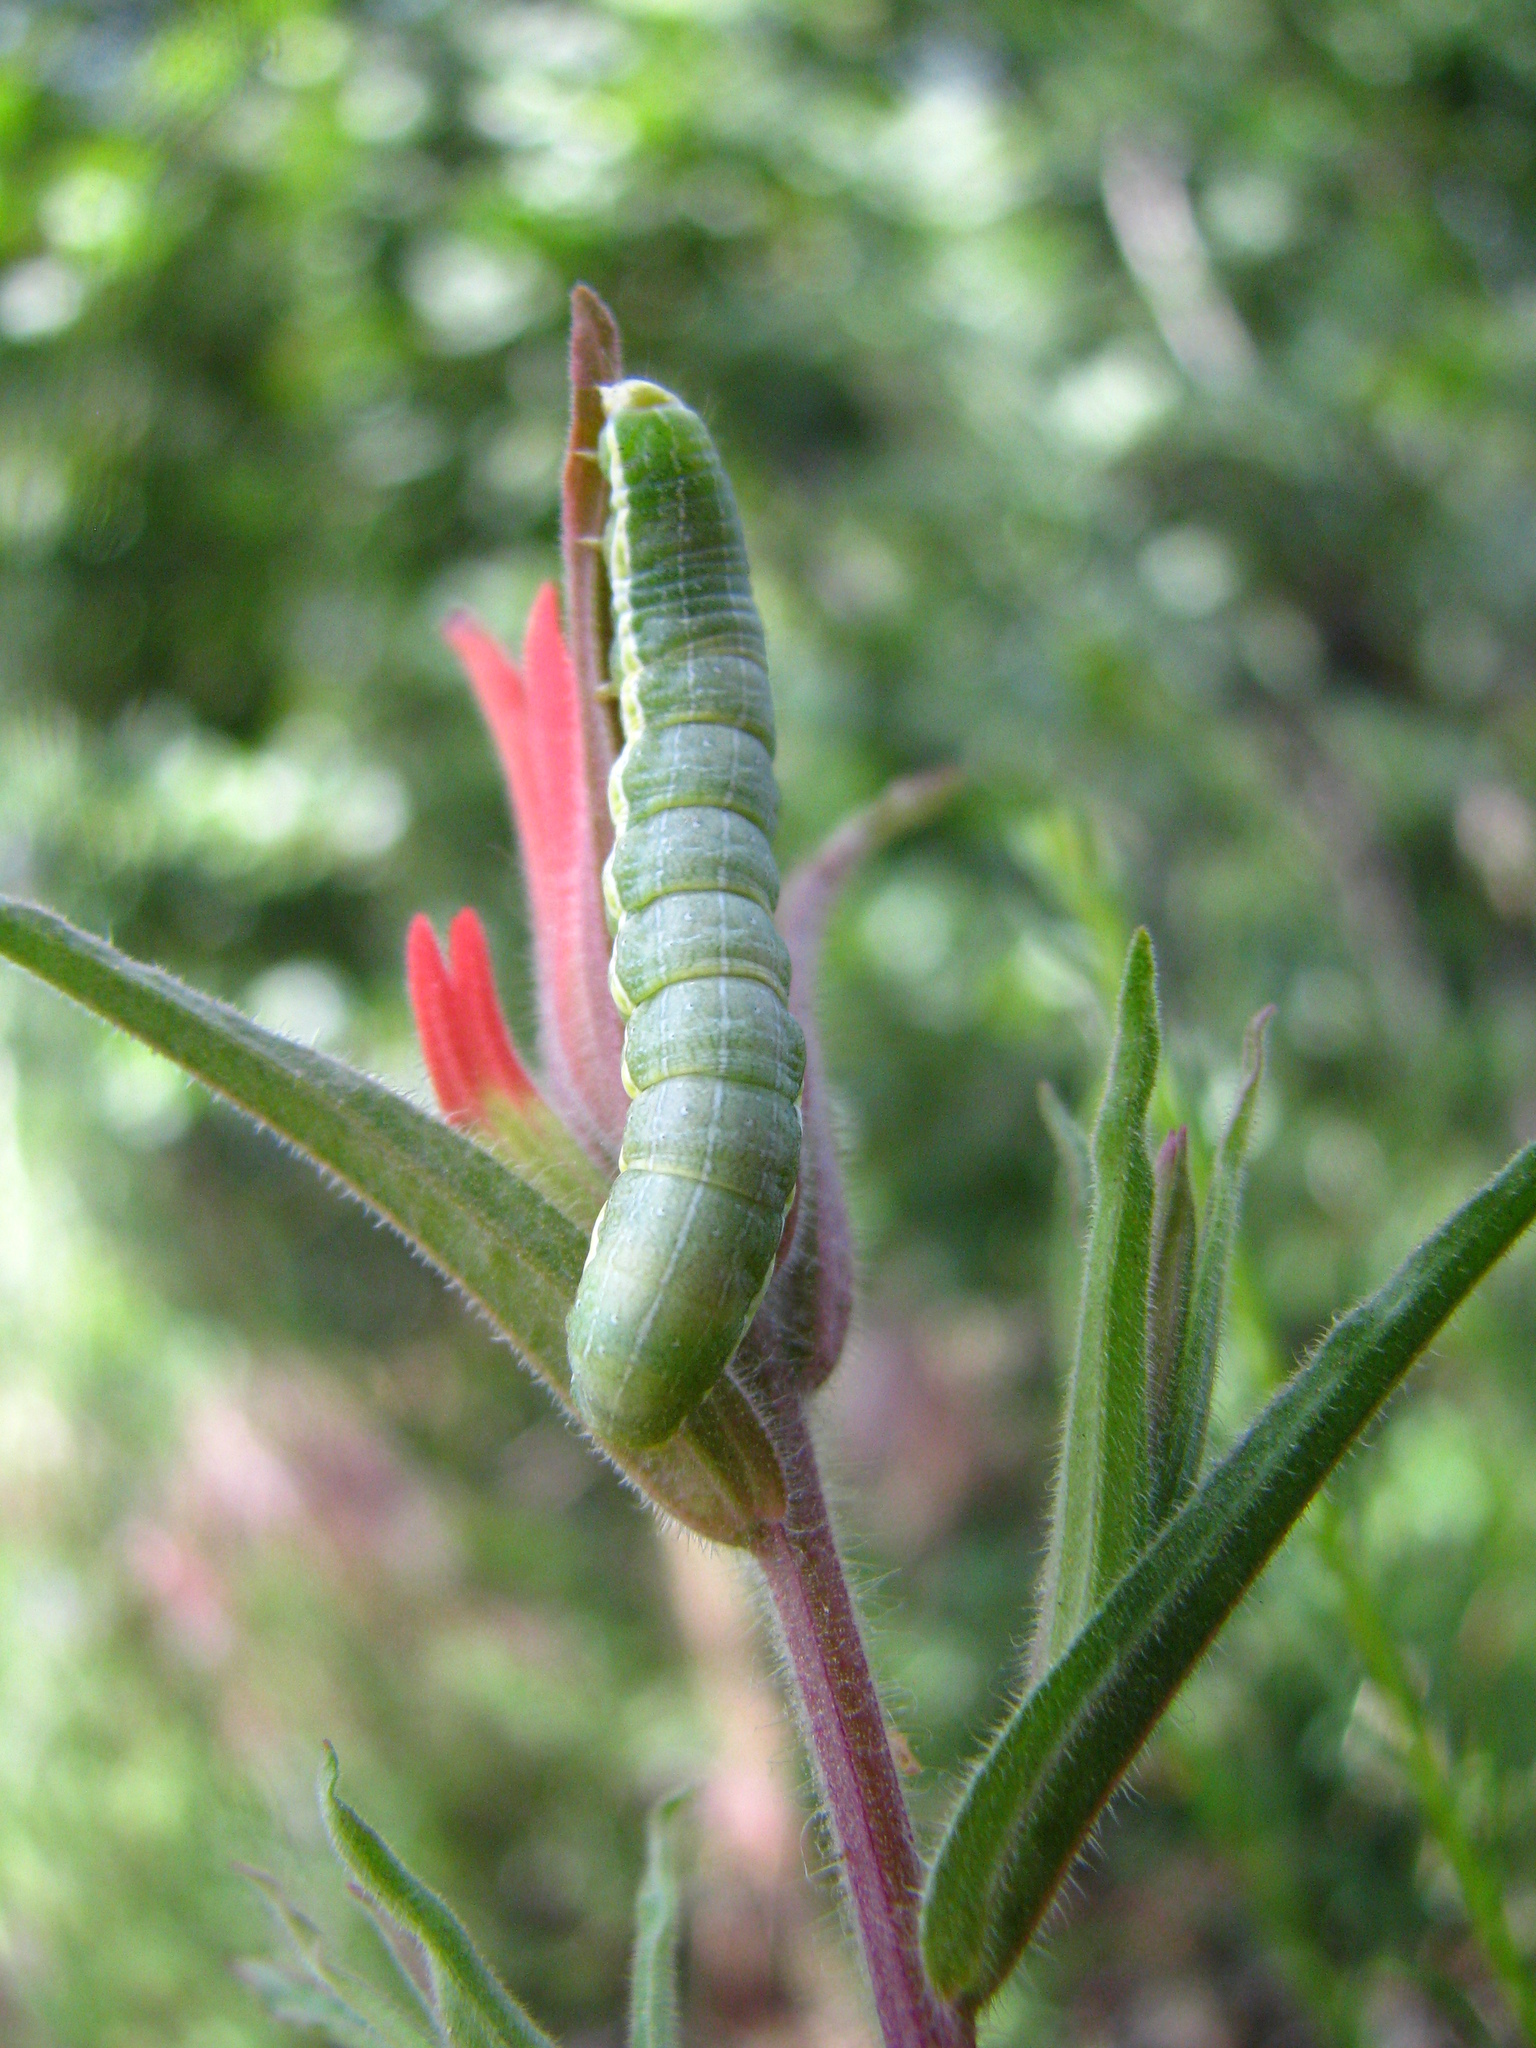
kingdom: Plantae
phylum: Tracheophyta
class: Magnoliopsida
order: Lamiales
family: Orobanchaceae
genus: Castilleja
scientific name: Castilleja linariifolia
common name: Wyoming paintbrush
